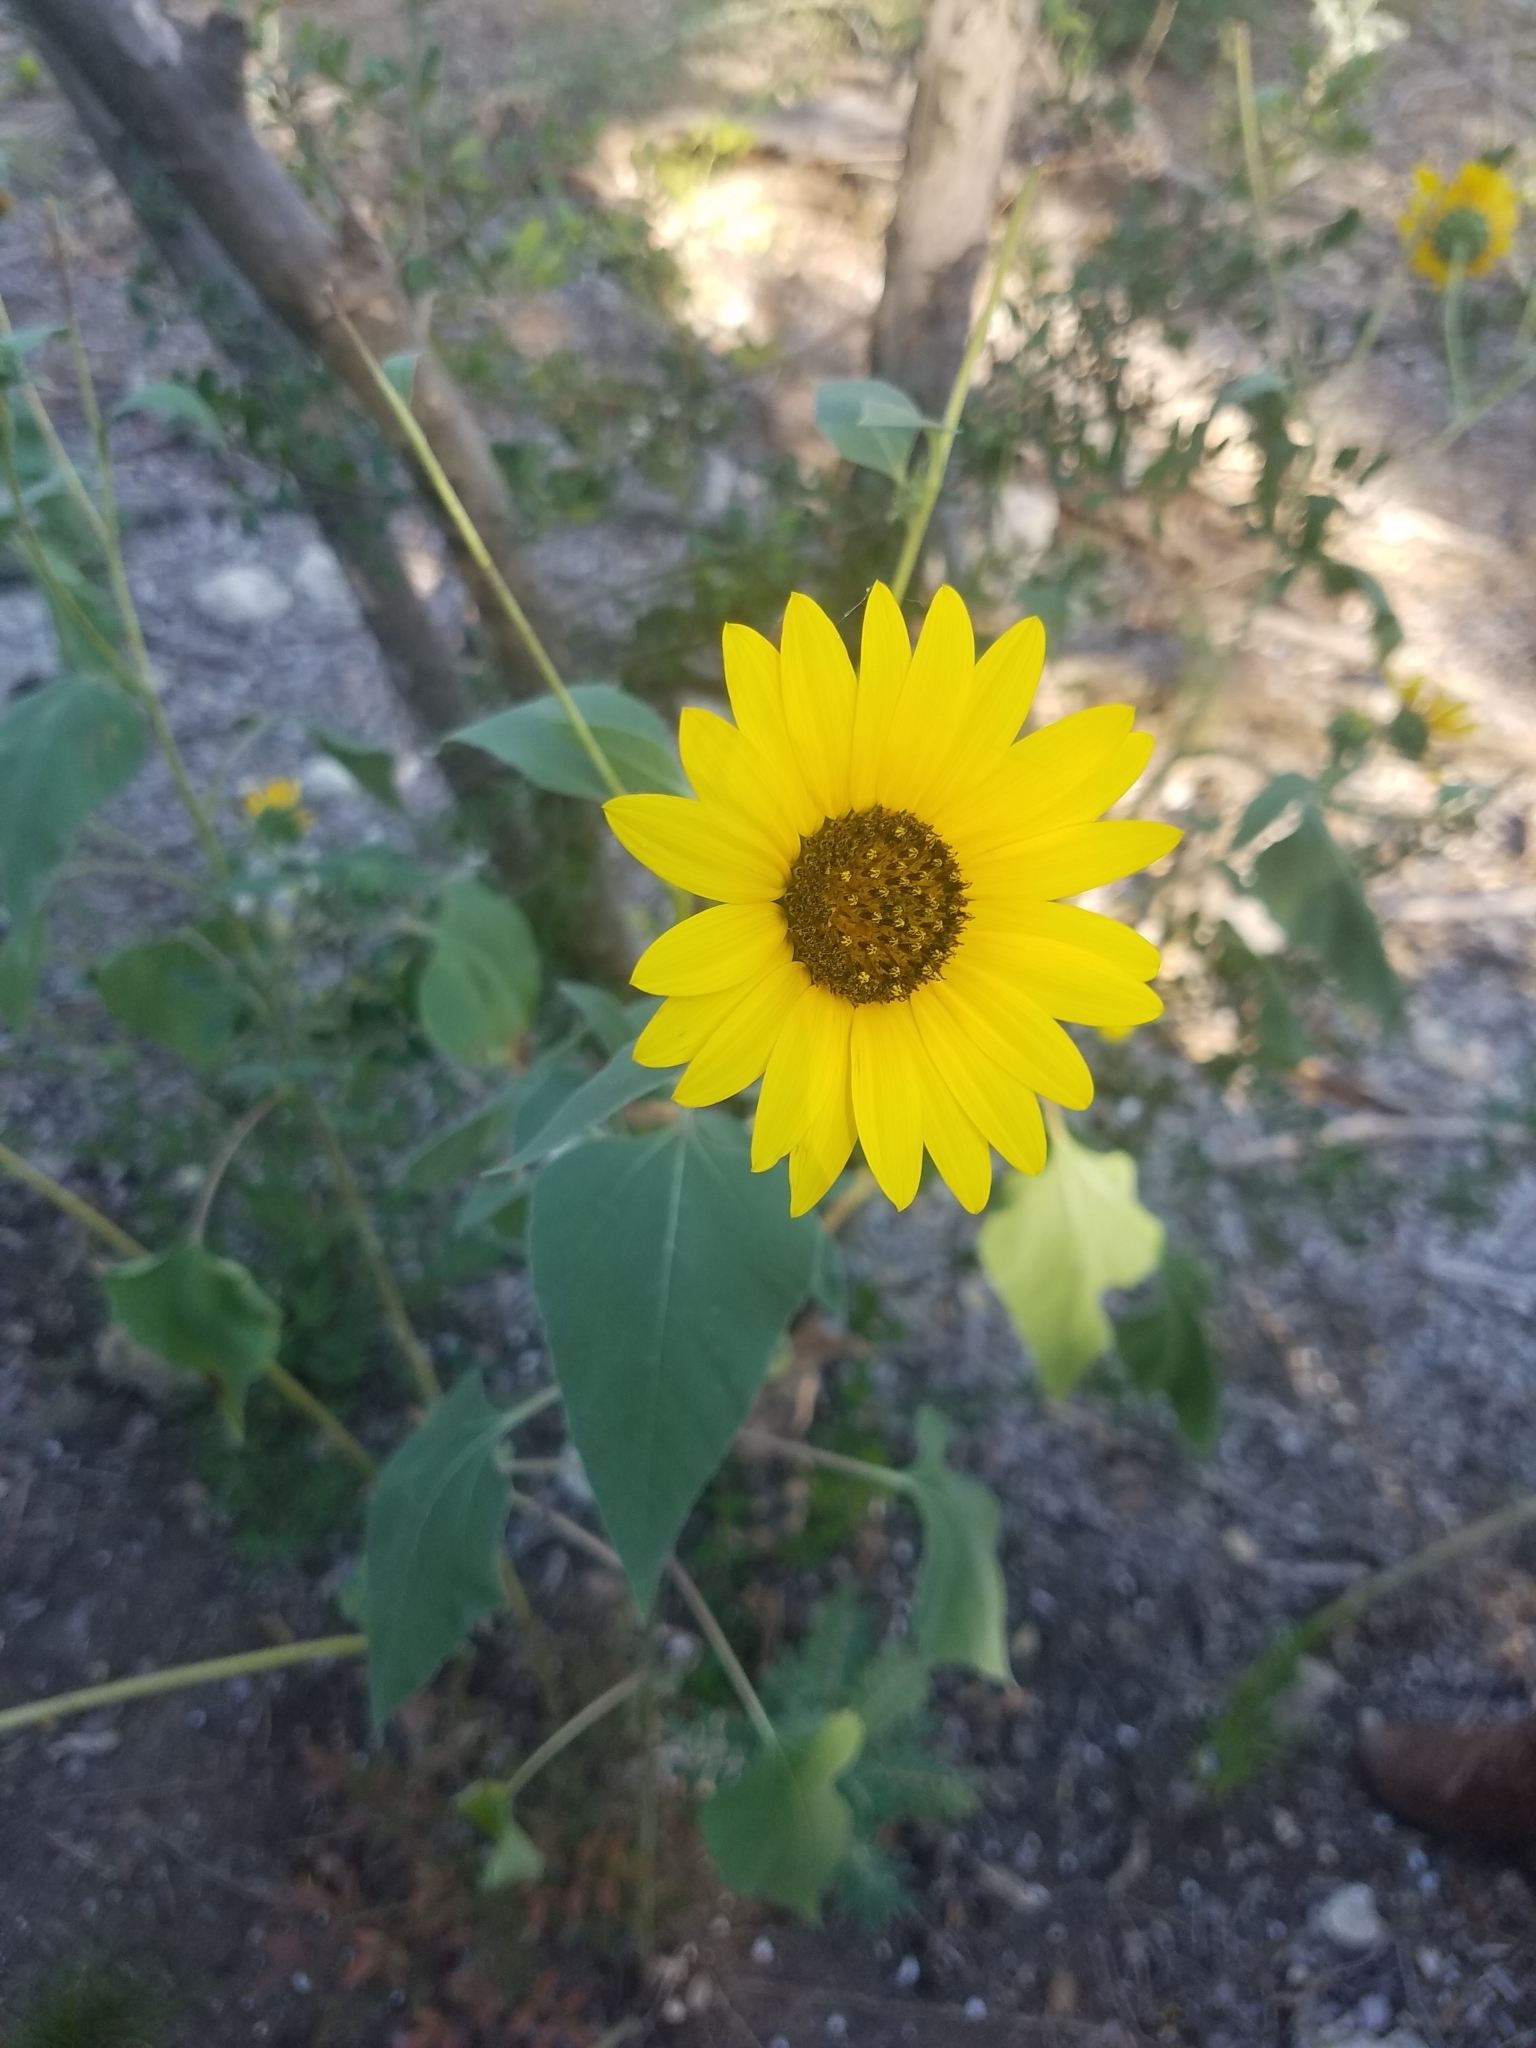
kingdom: Plantae
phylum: Tracheophyta
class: Magnoliopsida
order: Asterales
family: Asteraceae
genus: Helianthus
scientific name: Helianthus annuus
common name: Sunflower
